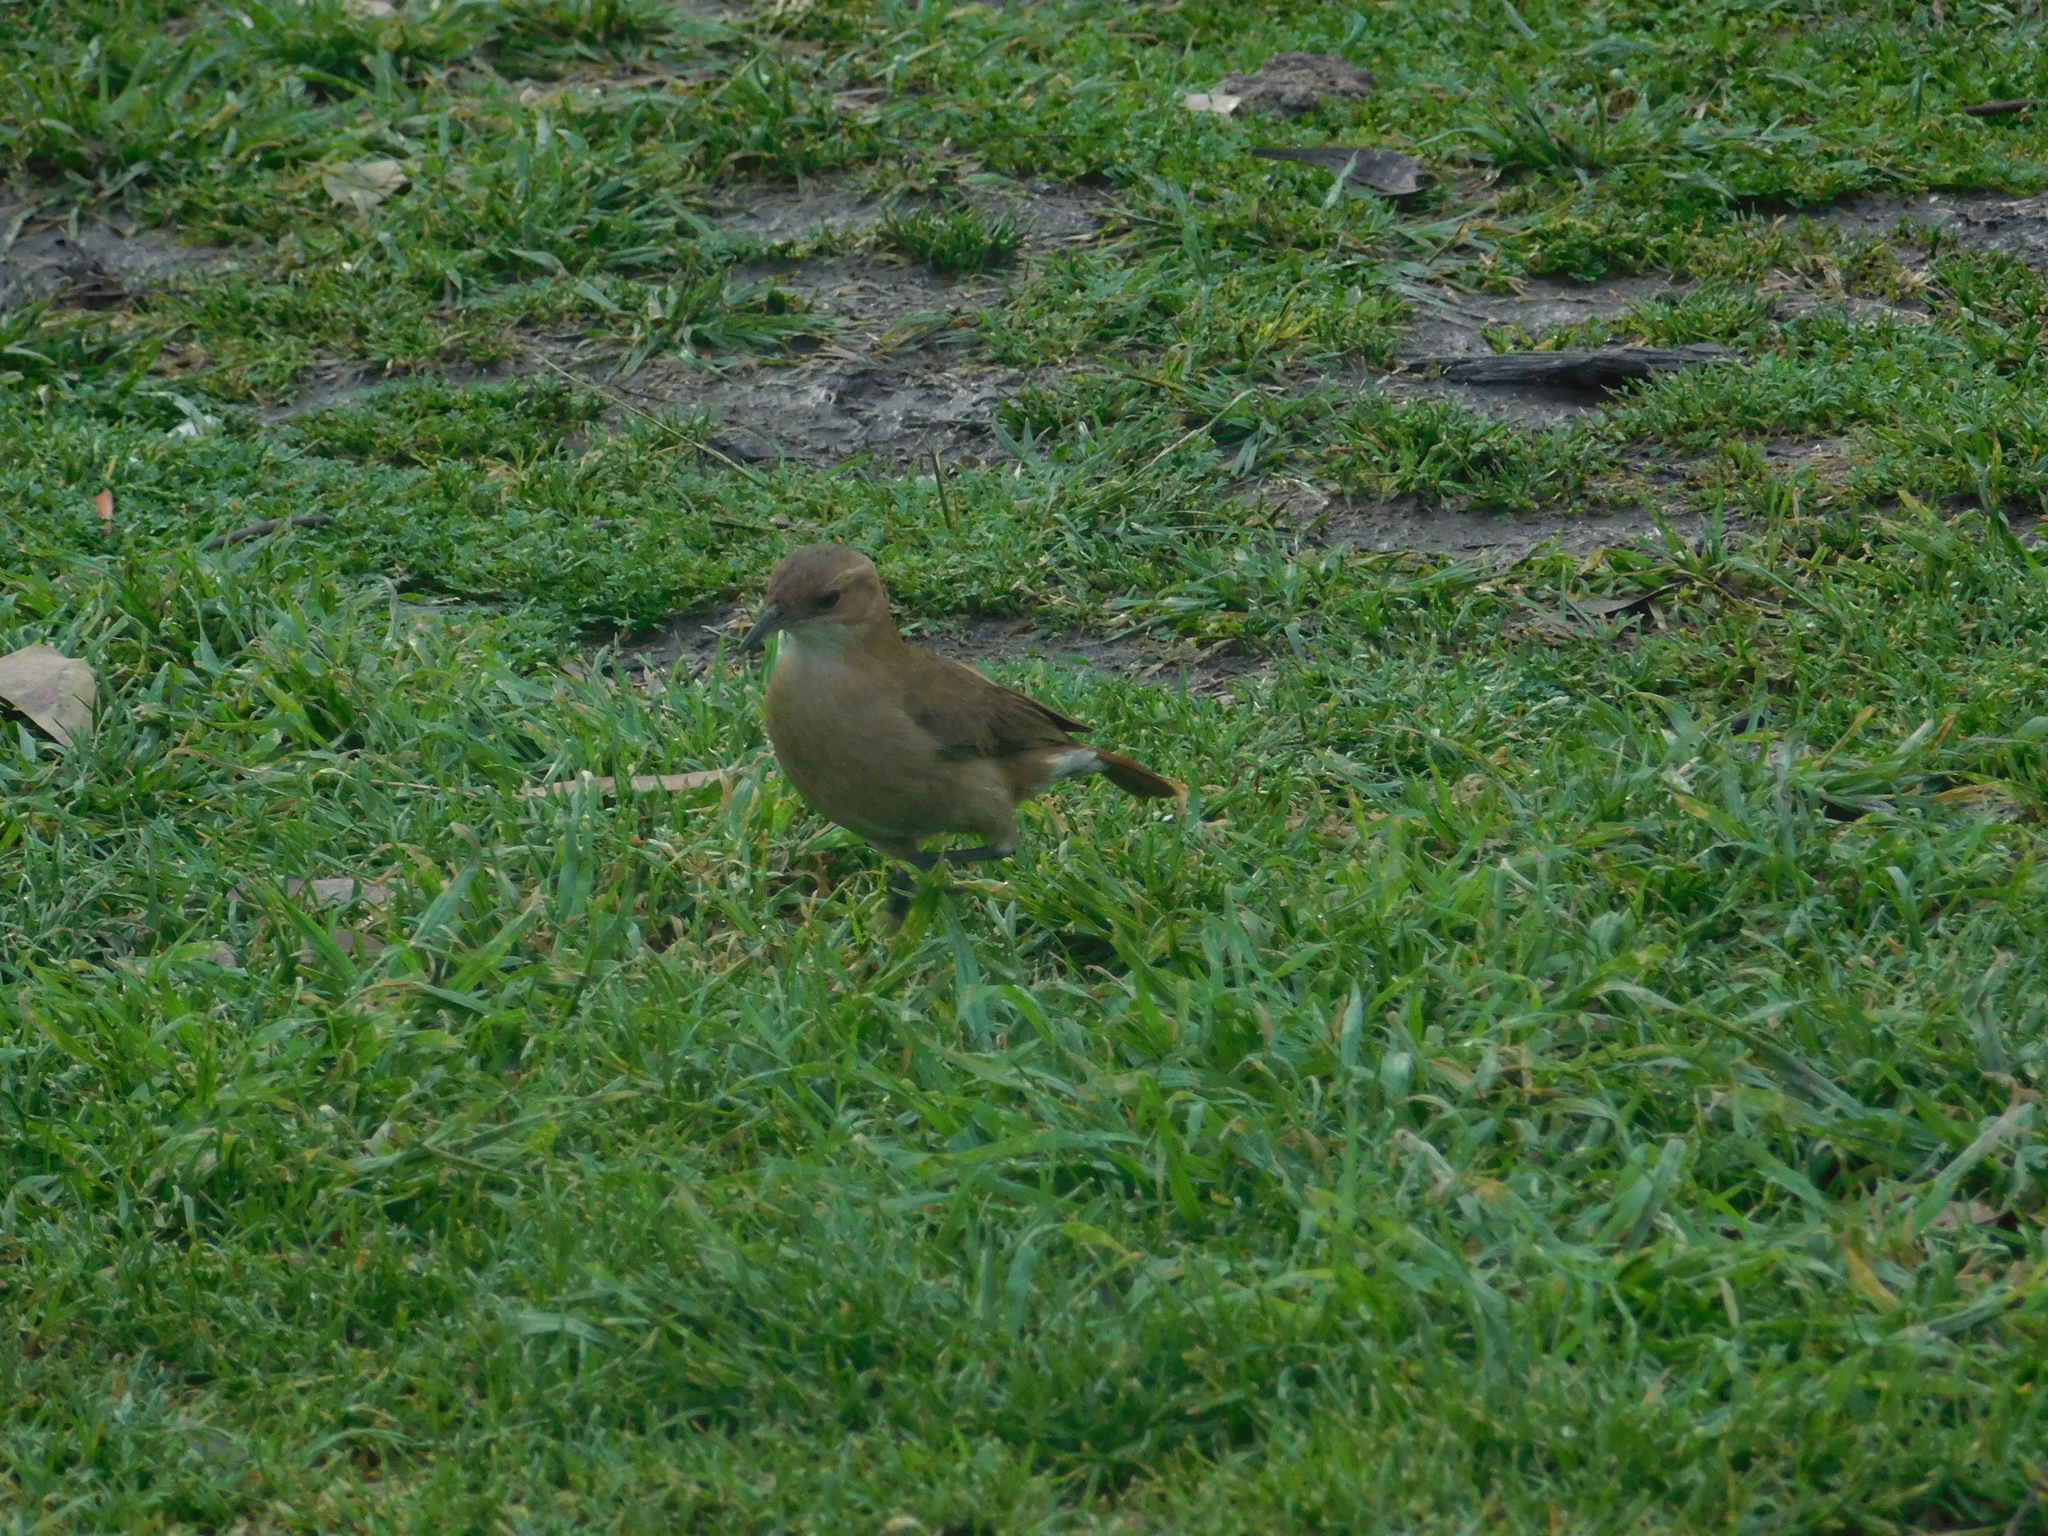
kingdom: Animalia
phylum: Chordata
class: Aves
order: Passeriformes
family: Furnariidae
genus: Furnarius
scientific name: Furnarius rufus
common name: Rufous hornero
